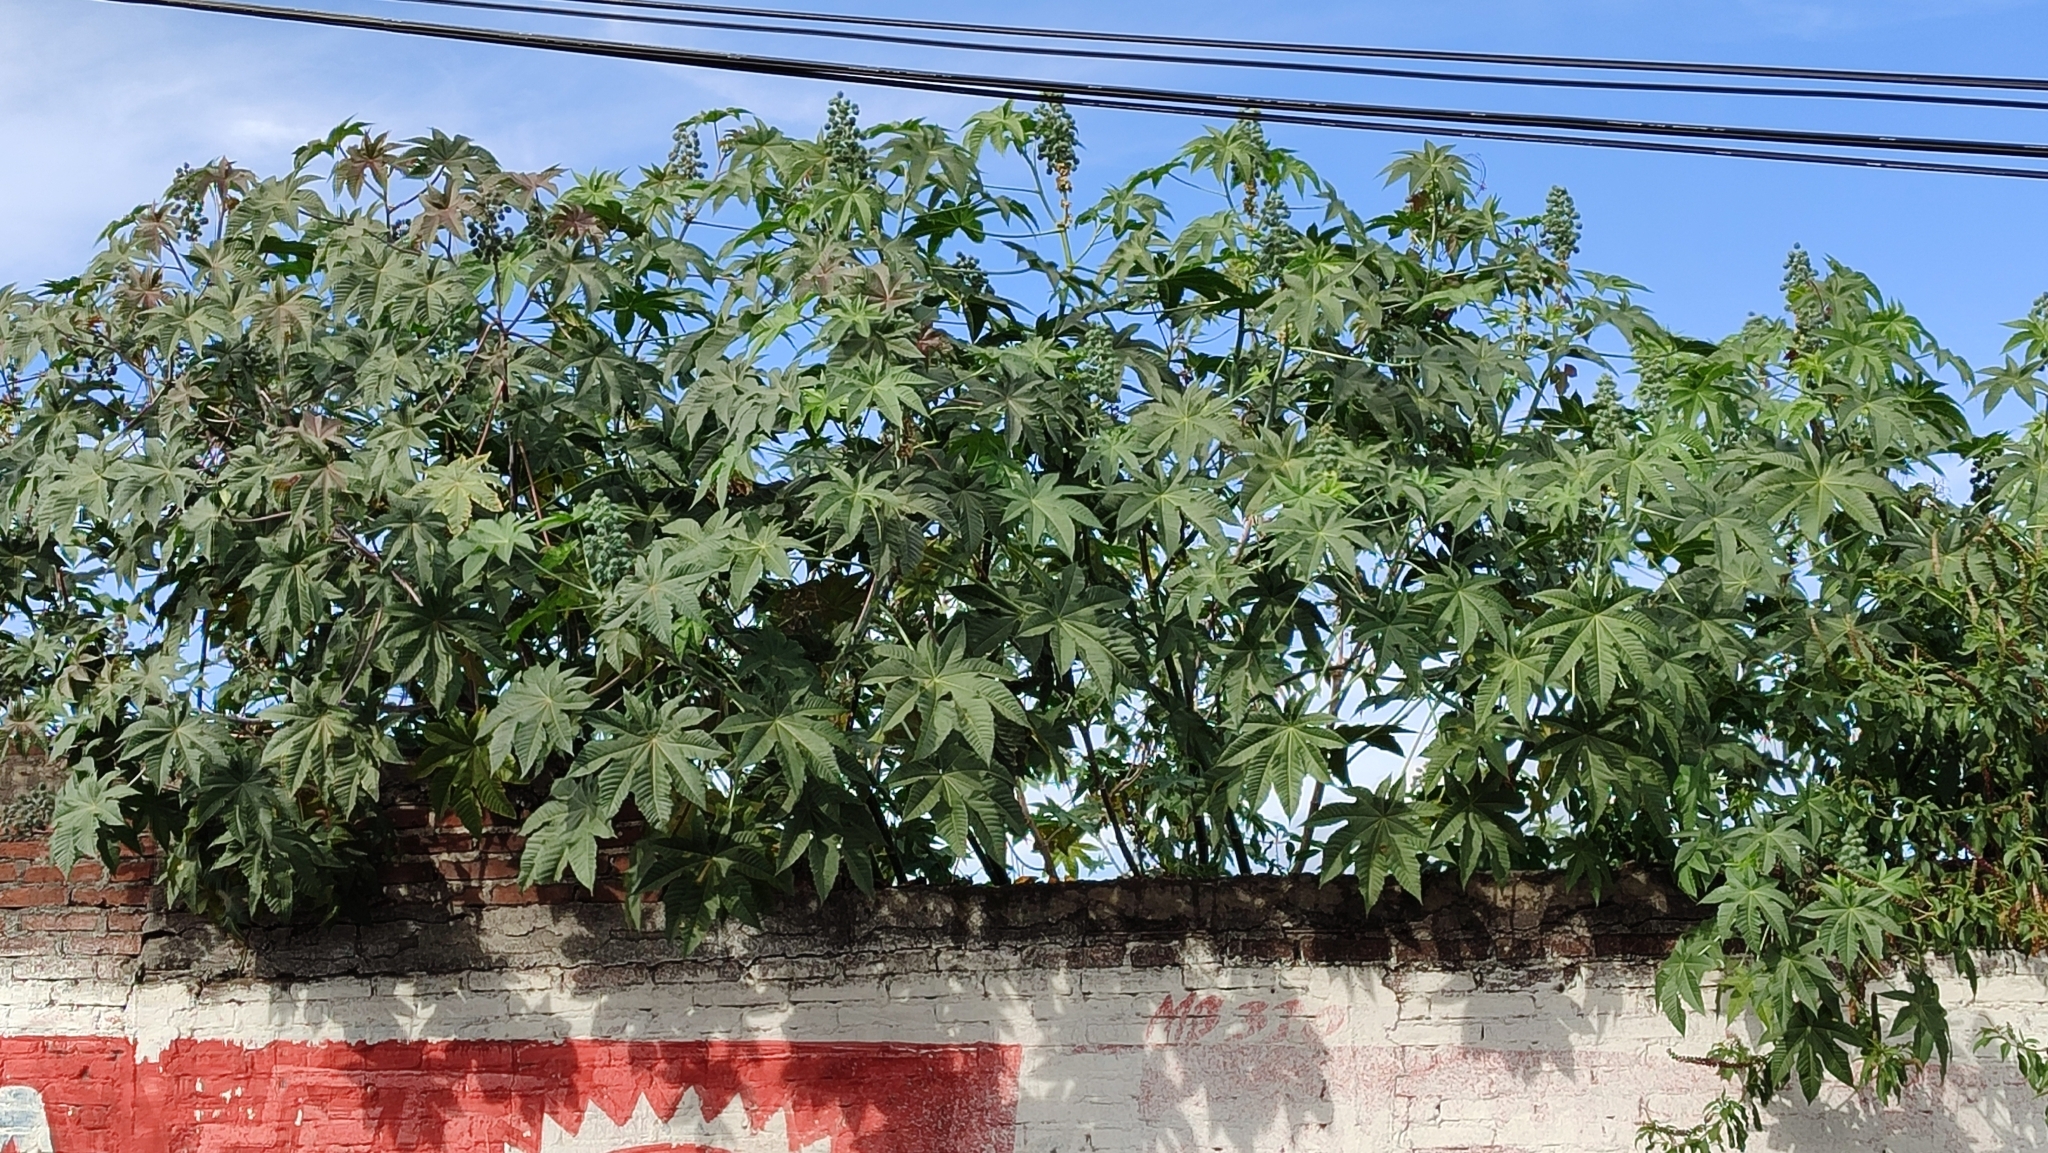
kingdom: Plantae
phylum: Tracheophyta
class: Magnoliopsida
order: Malpighiales
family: Euphorbiaceae
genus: Ricinus
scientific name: Ricinus communis
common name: Castor-oil-plant
